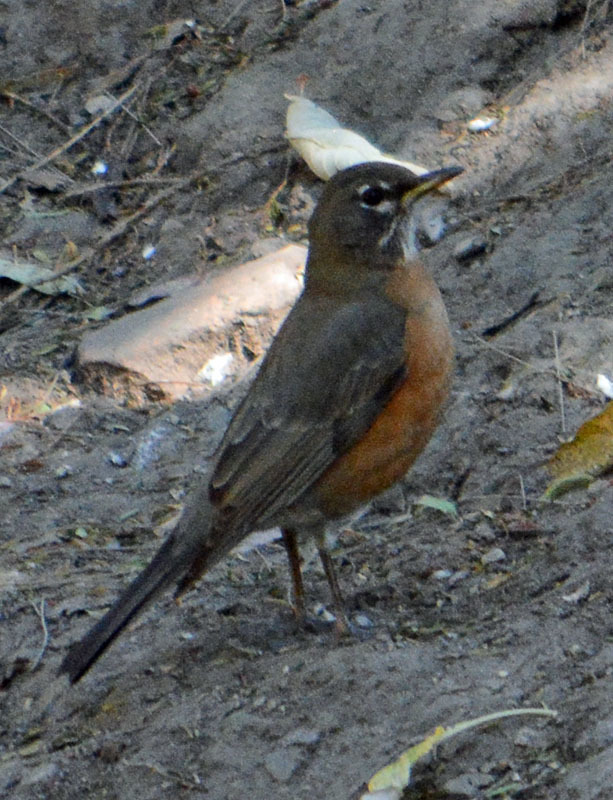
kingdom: Animalia
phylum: Chordata
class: Aves
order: Passeriformes
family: Turdidae
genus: Turdus
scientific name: Turdus migratorius
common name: American robin
